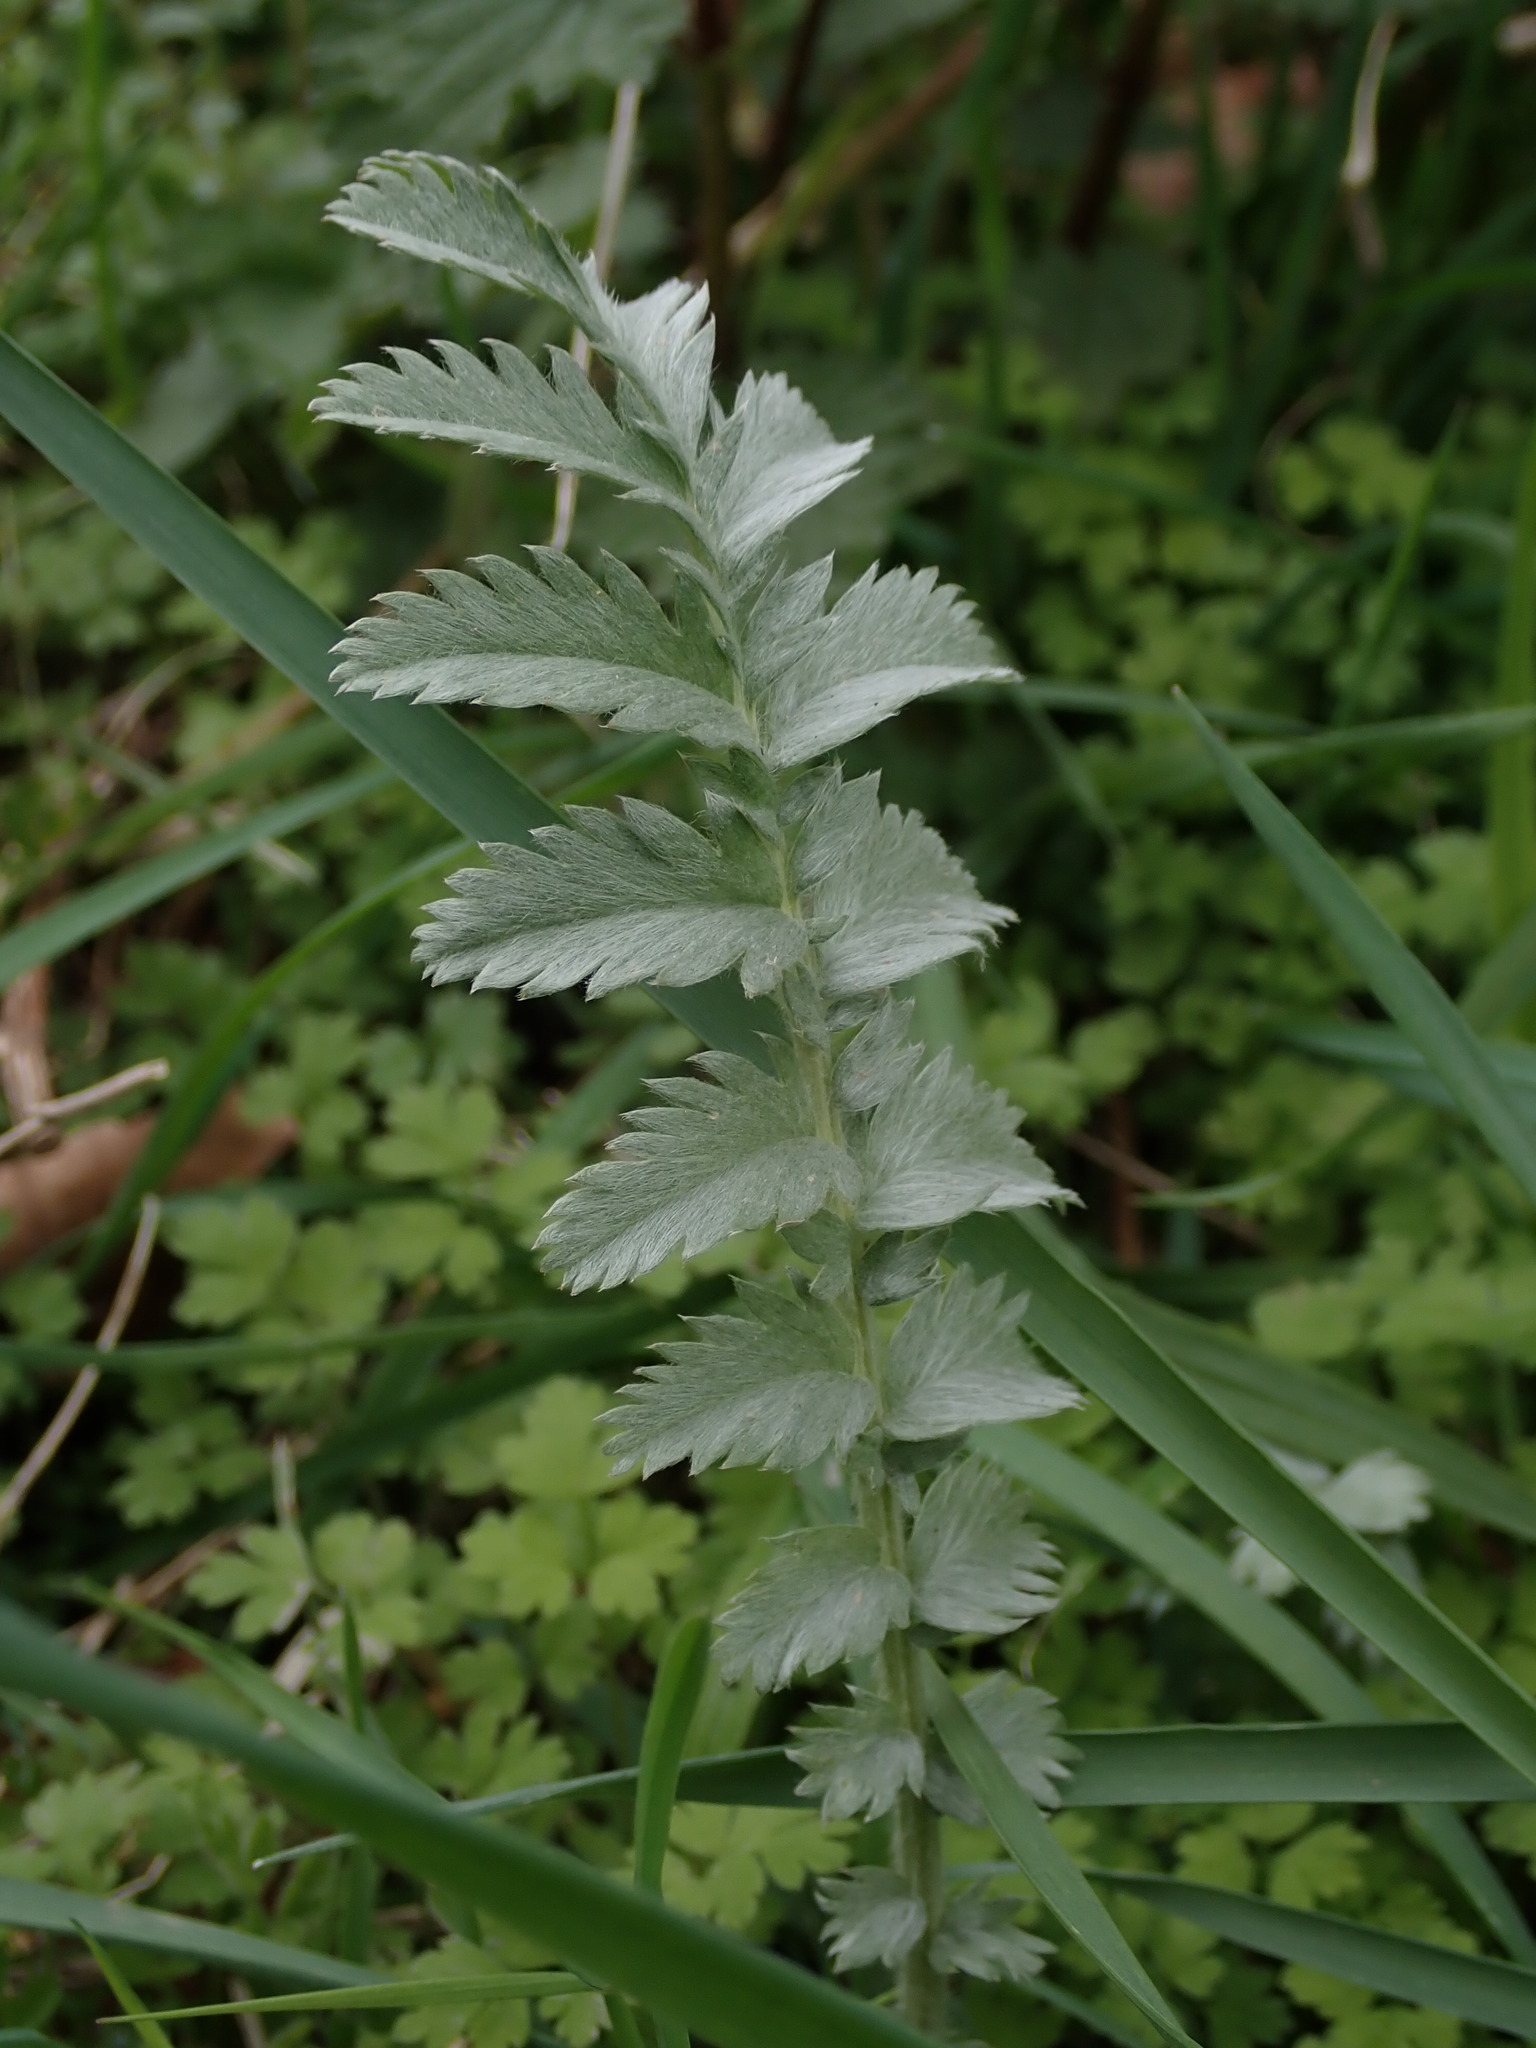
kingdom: Plantae
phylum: Tracheophyta
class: Magnoliopsida
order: Rosales
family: Rosaceae
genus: Argentina
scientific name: Argentina anserina
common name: Common silverweed
